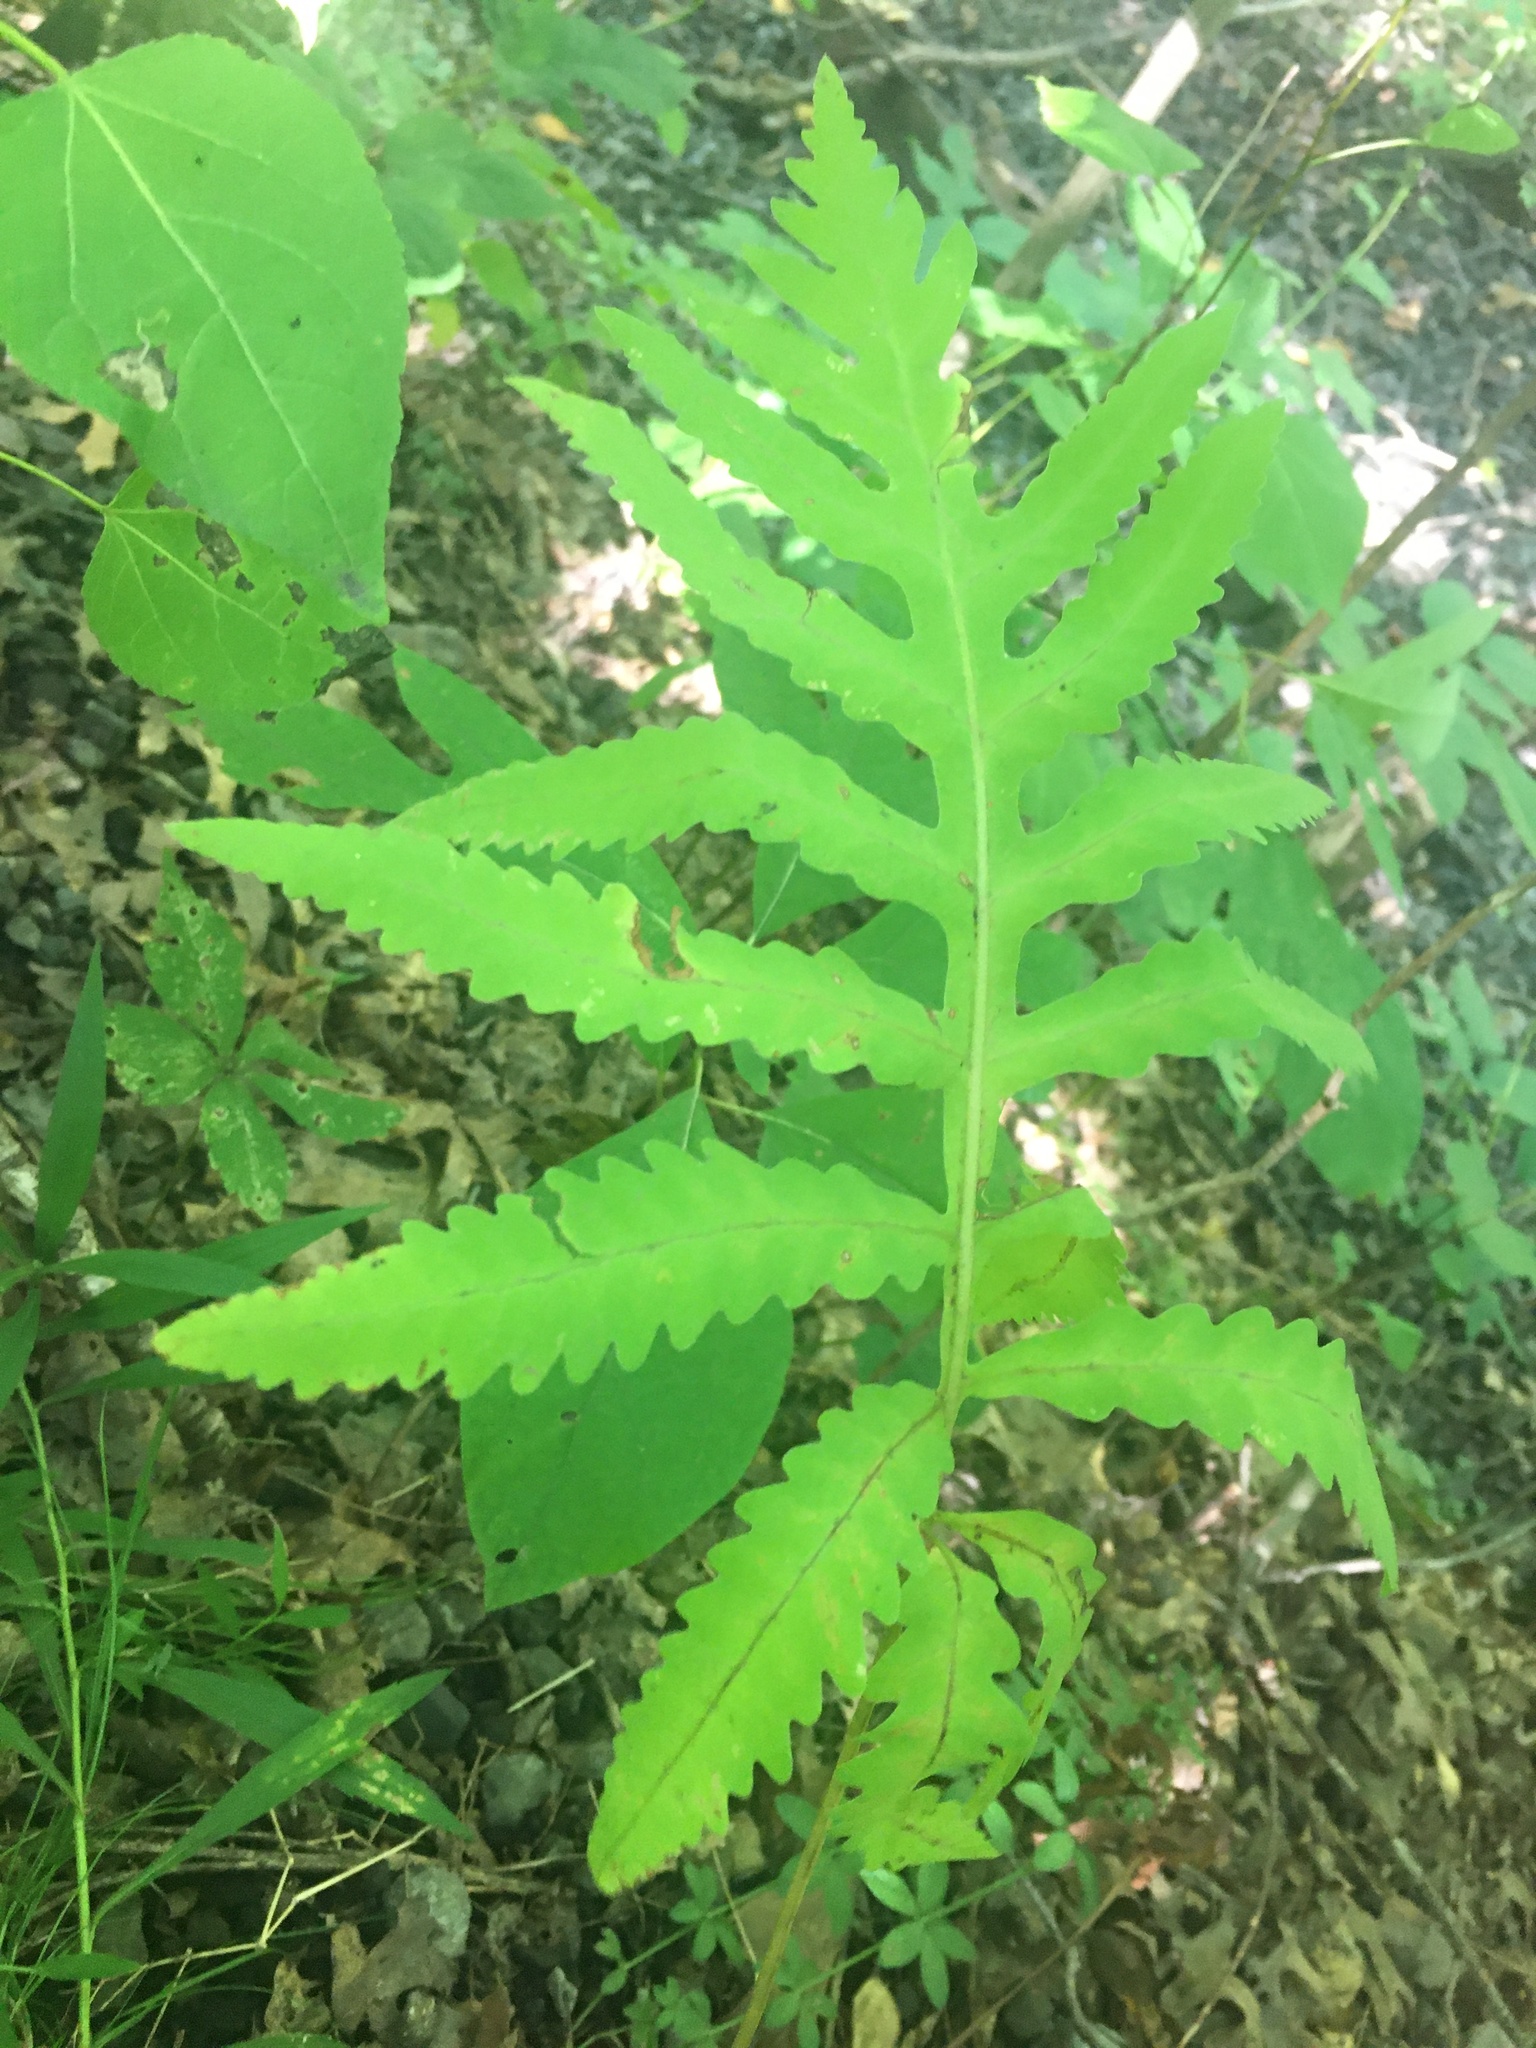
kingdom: Plantae
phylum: Tracheophyta
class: Polypodiopsida
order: Polypodiales
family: Onocleaceae
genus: Onoclea
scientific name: Onoclea sensibilis
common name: Sensitive fern
